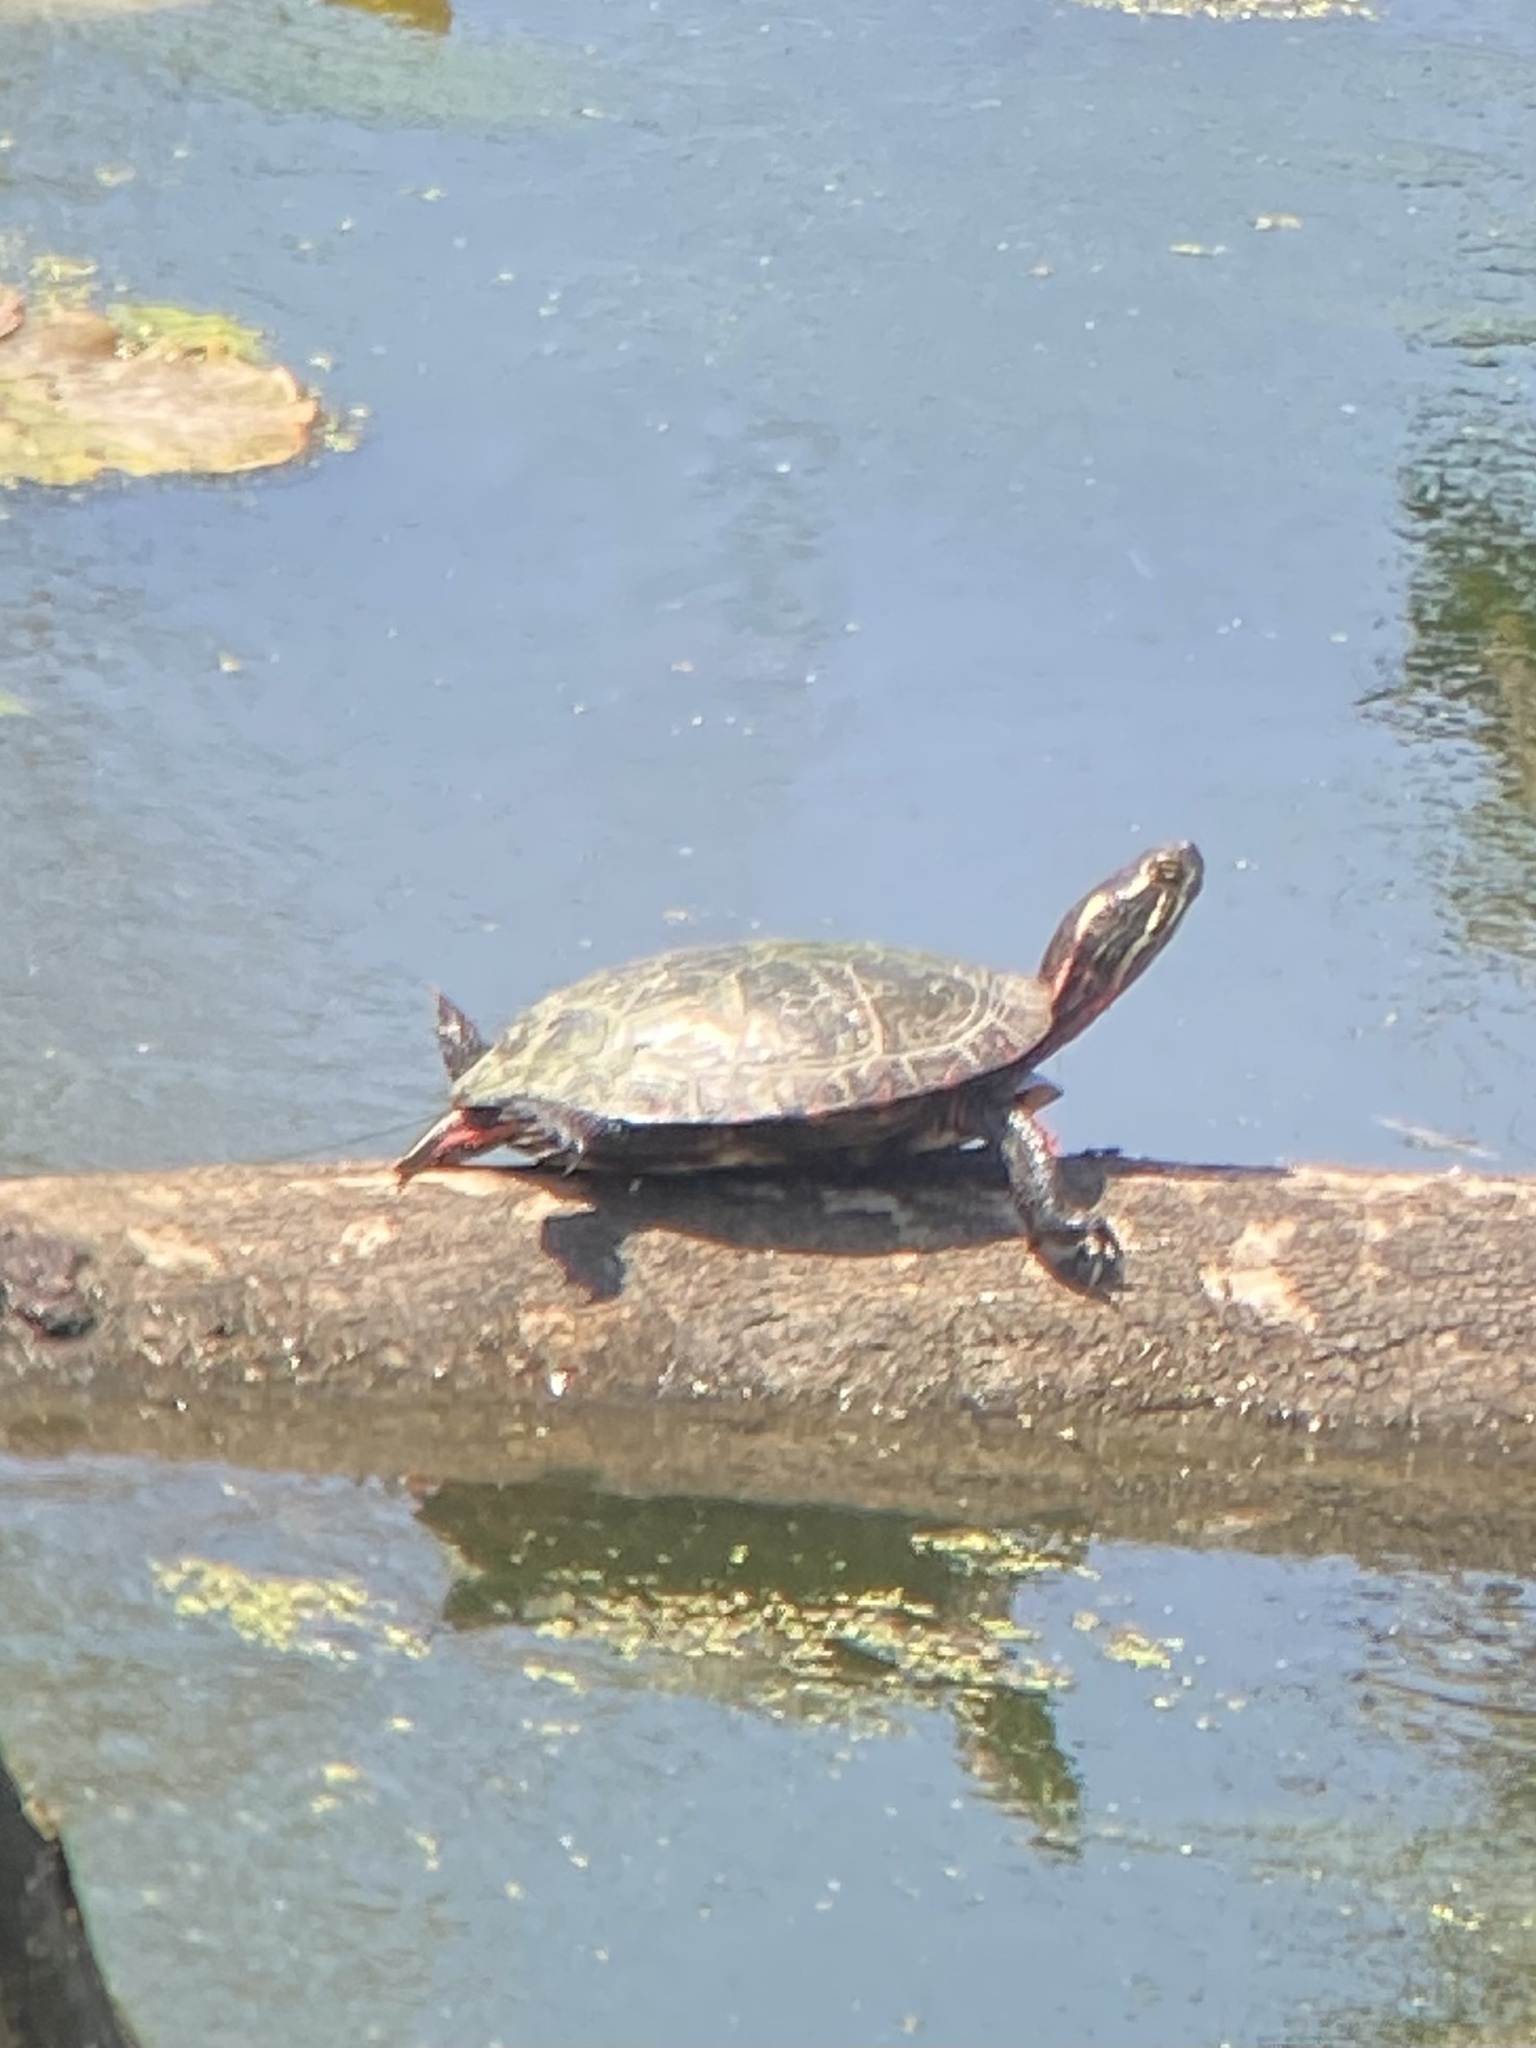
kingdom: Animalia
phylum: Chordata
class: Testudines
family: Emydidae
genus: Chrysemys
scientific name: Chrysemys picta
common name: Painted turtle
